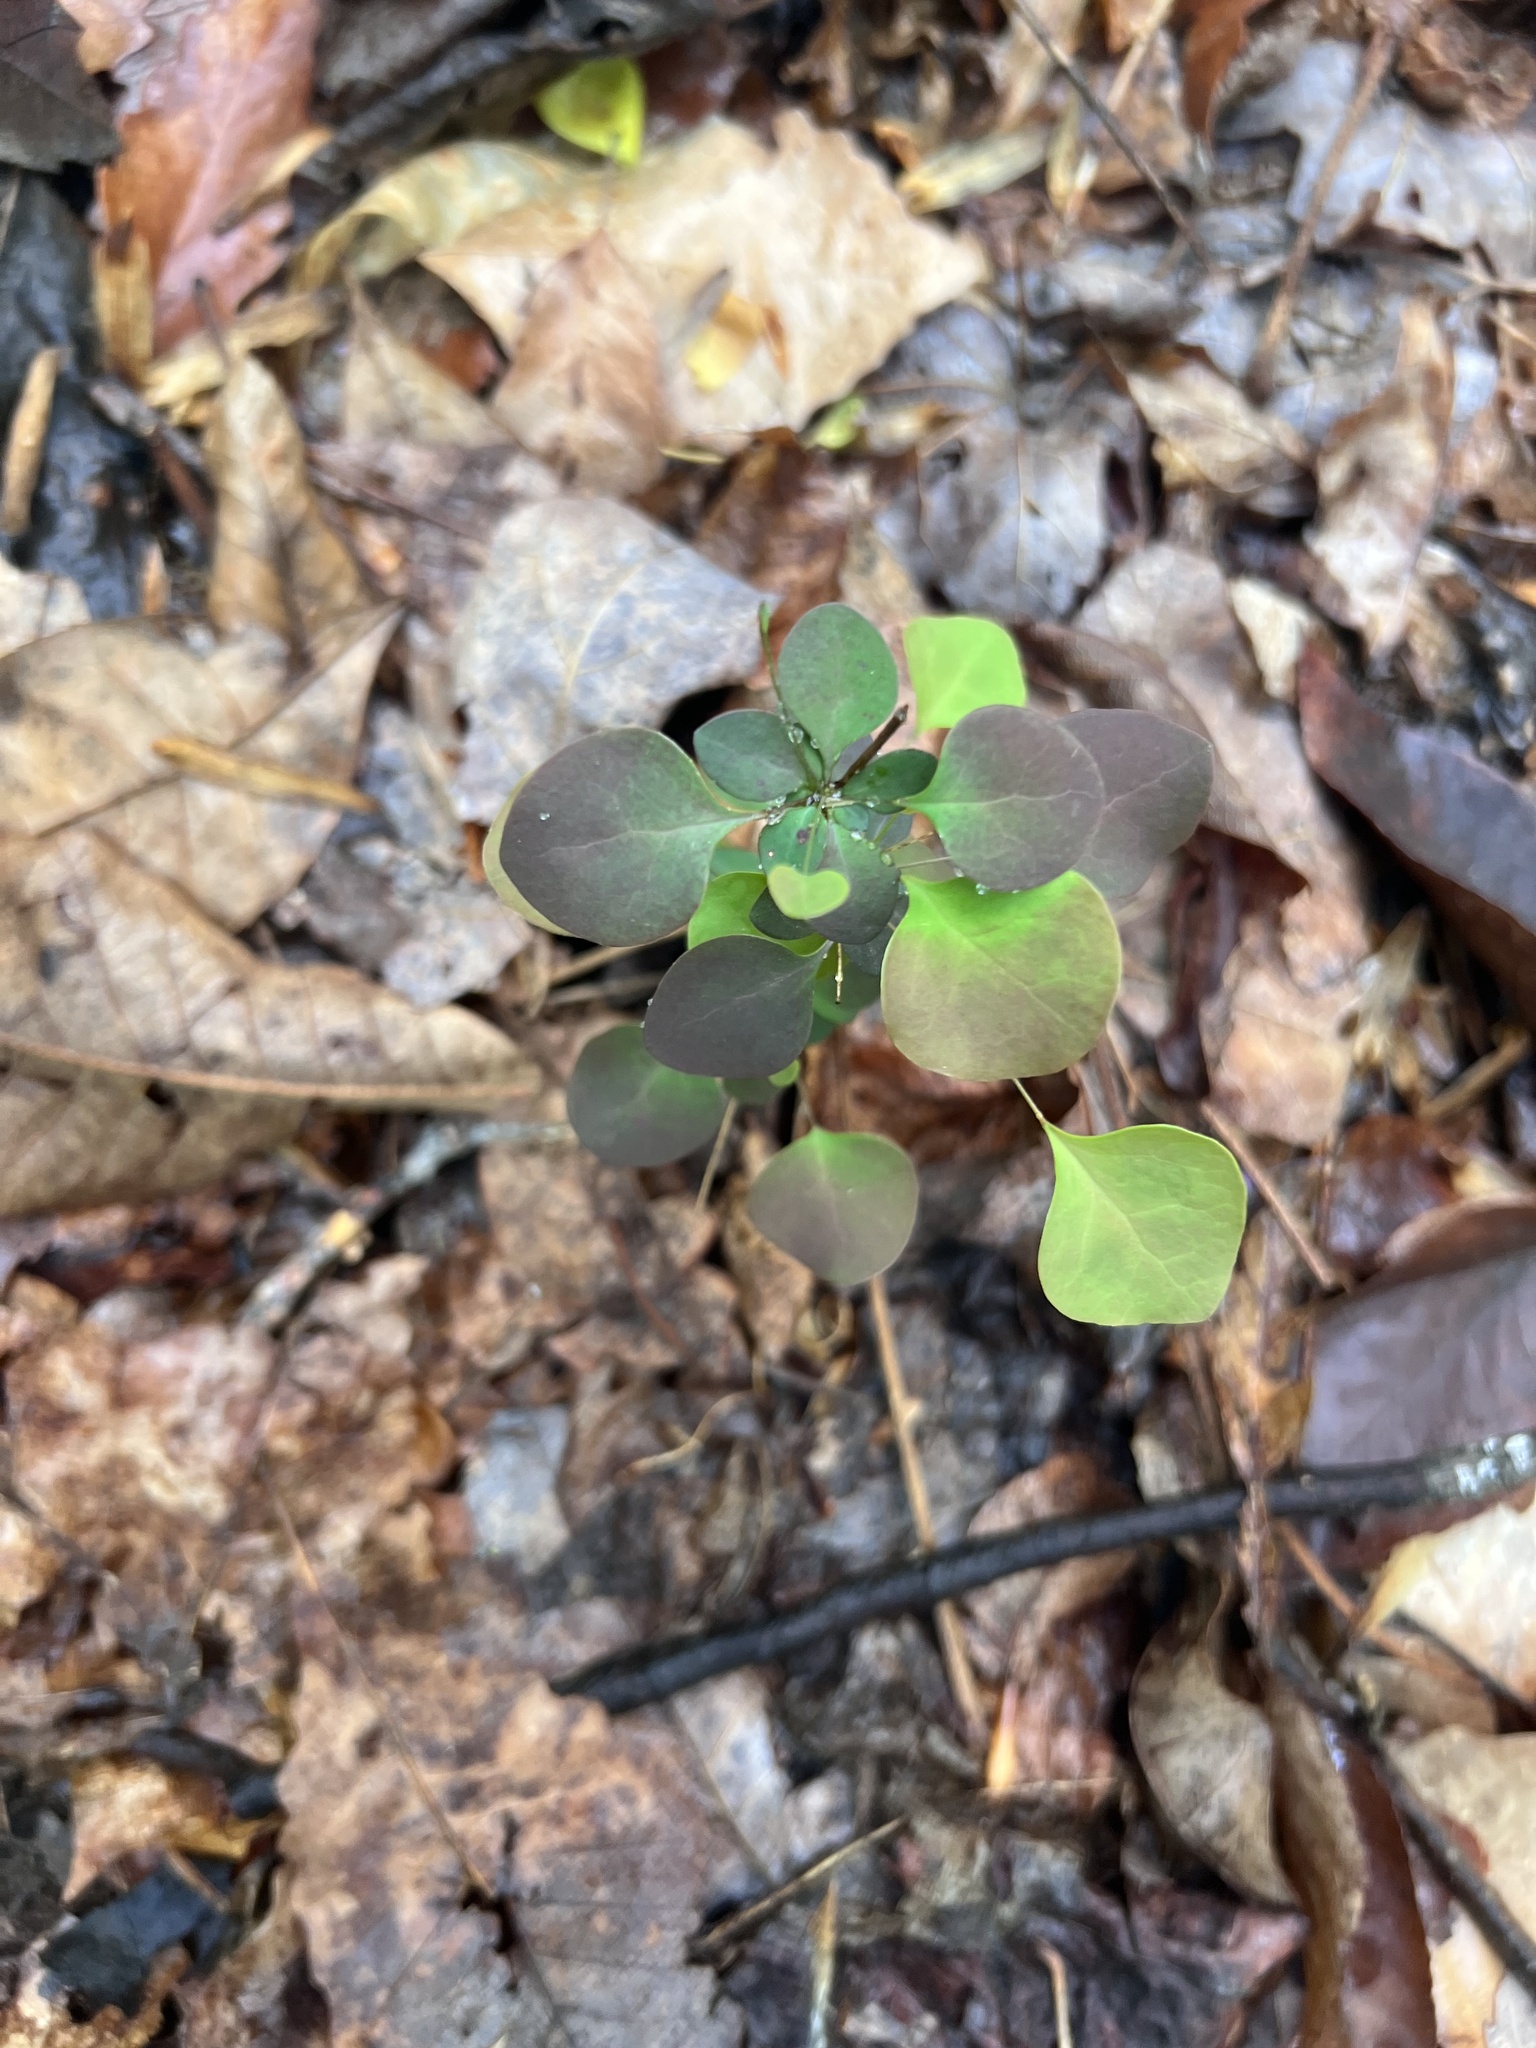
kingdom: Plantae
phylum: Tracheophyta
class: Magnoliopsida
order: Ranunculales
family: Berberidaceae
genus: Berberis
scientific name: Berberis thunbergii
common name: Japanese barberry
